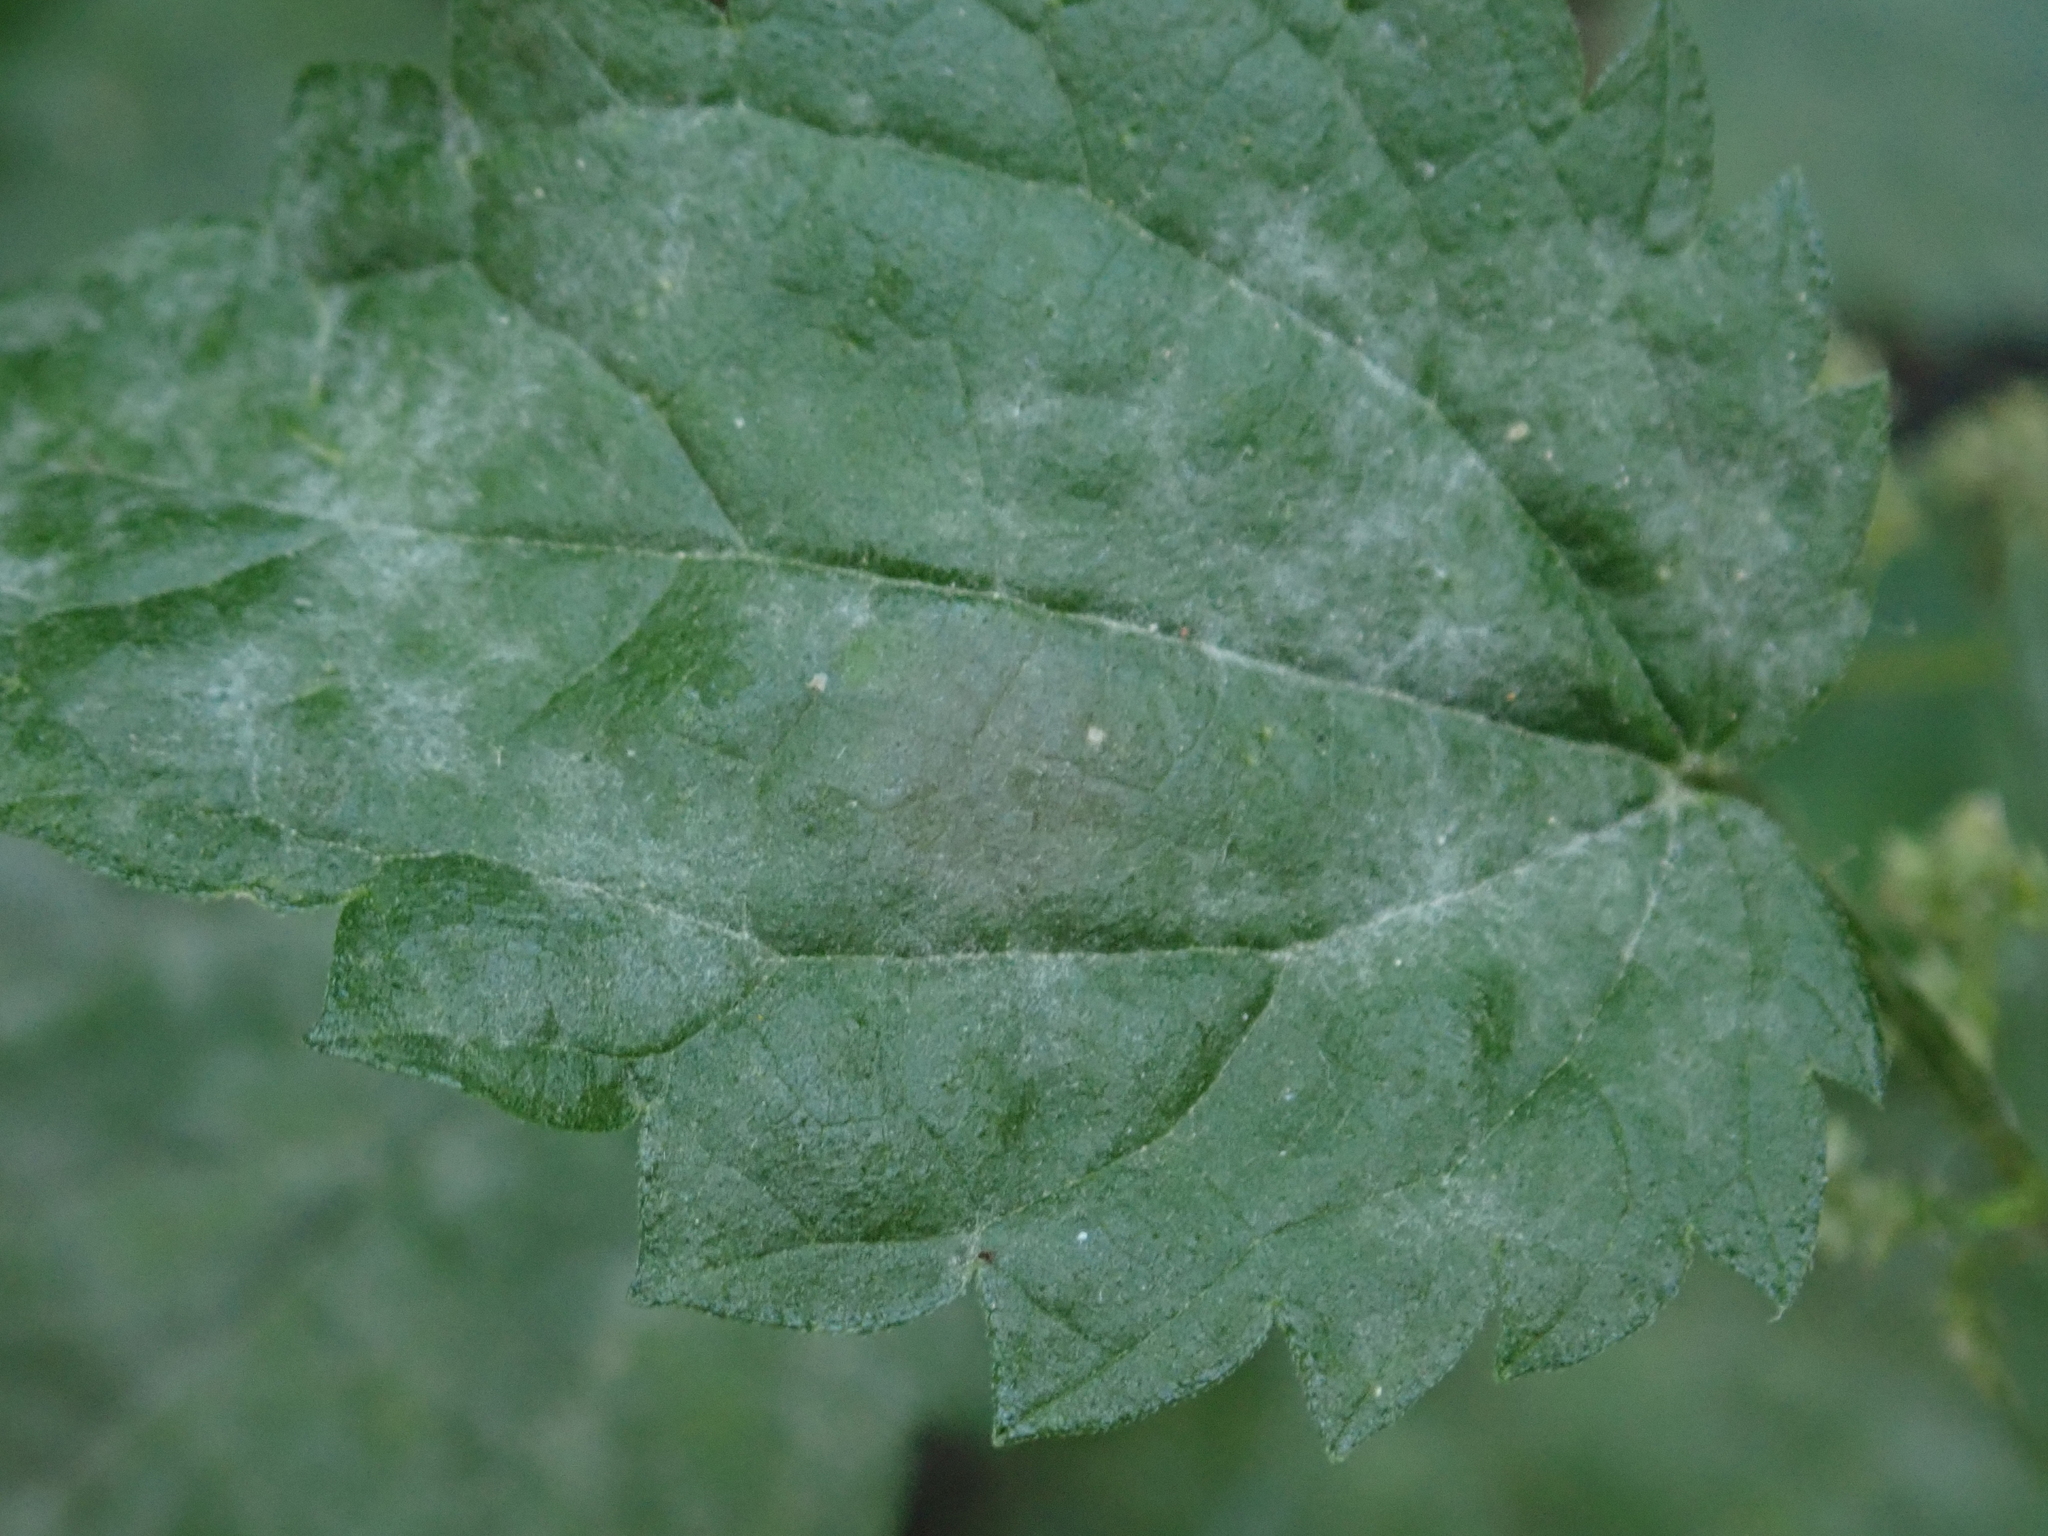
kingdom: Fungi
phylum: Ascomycota
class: Leotiomycetes
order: Helotiales
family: Erysiphaceae
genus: Erysiphe
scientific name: Erysiphe urticae
